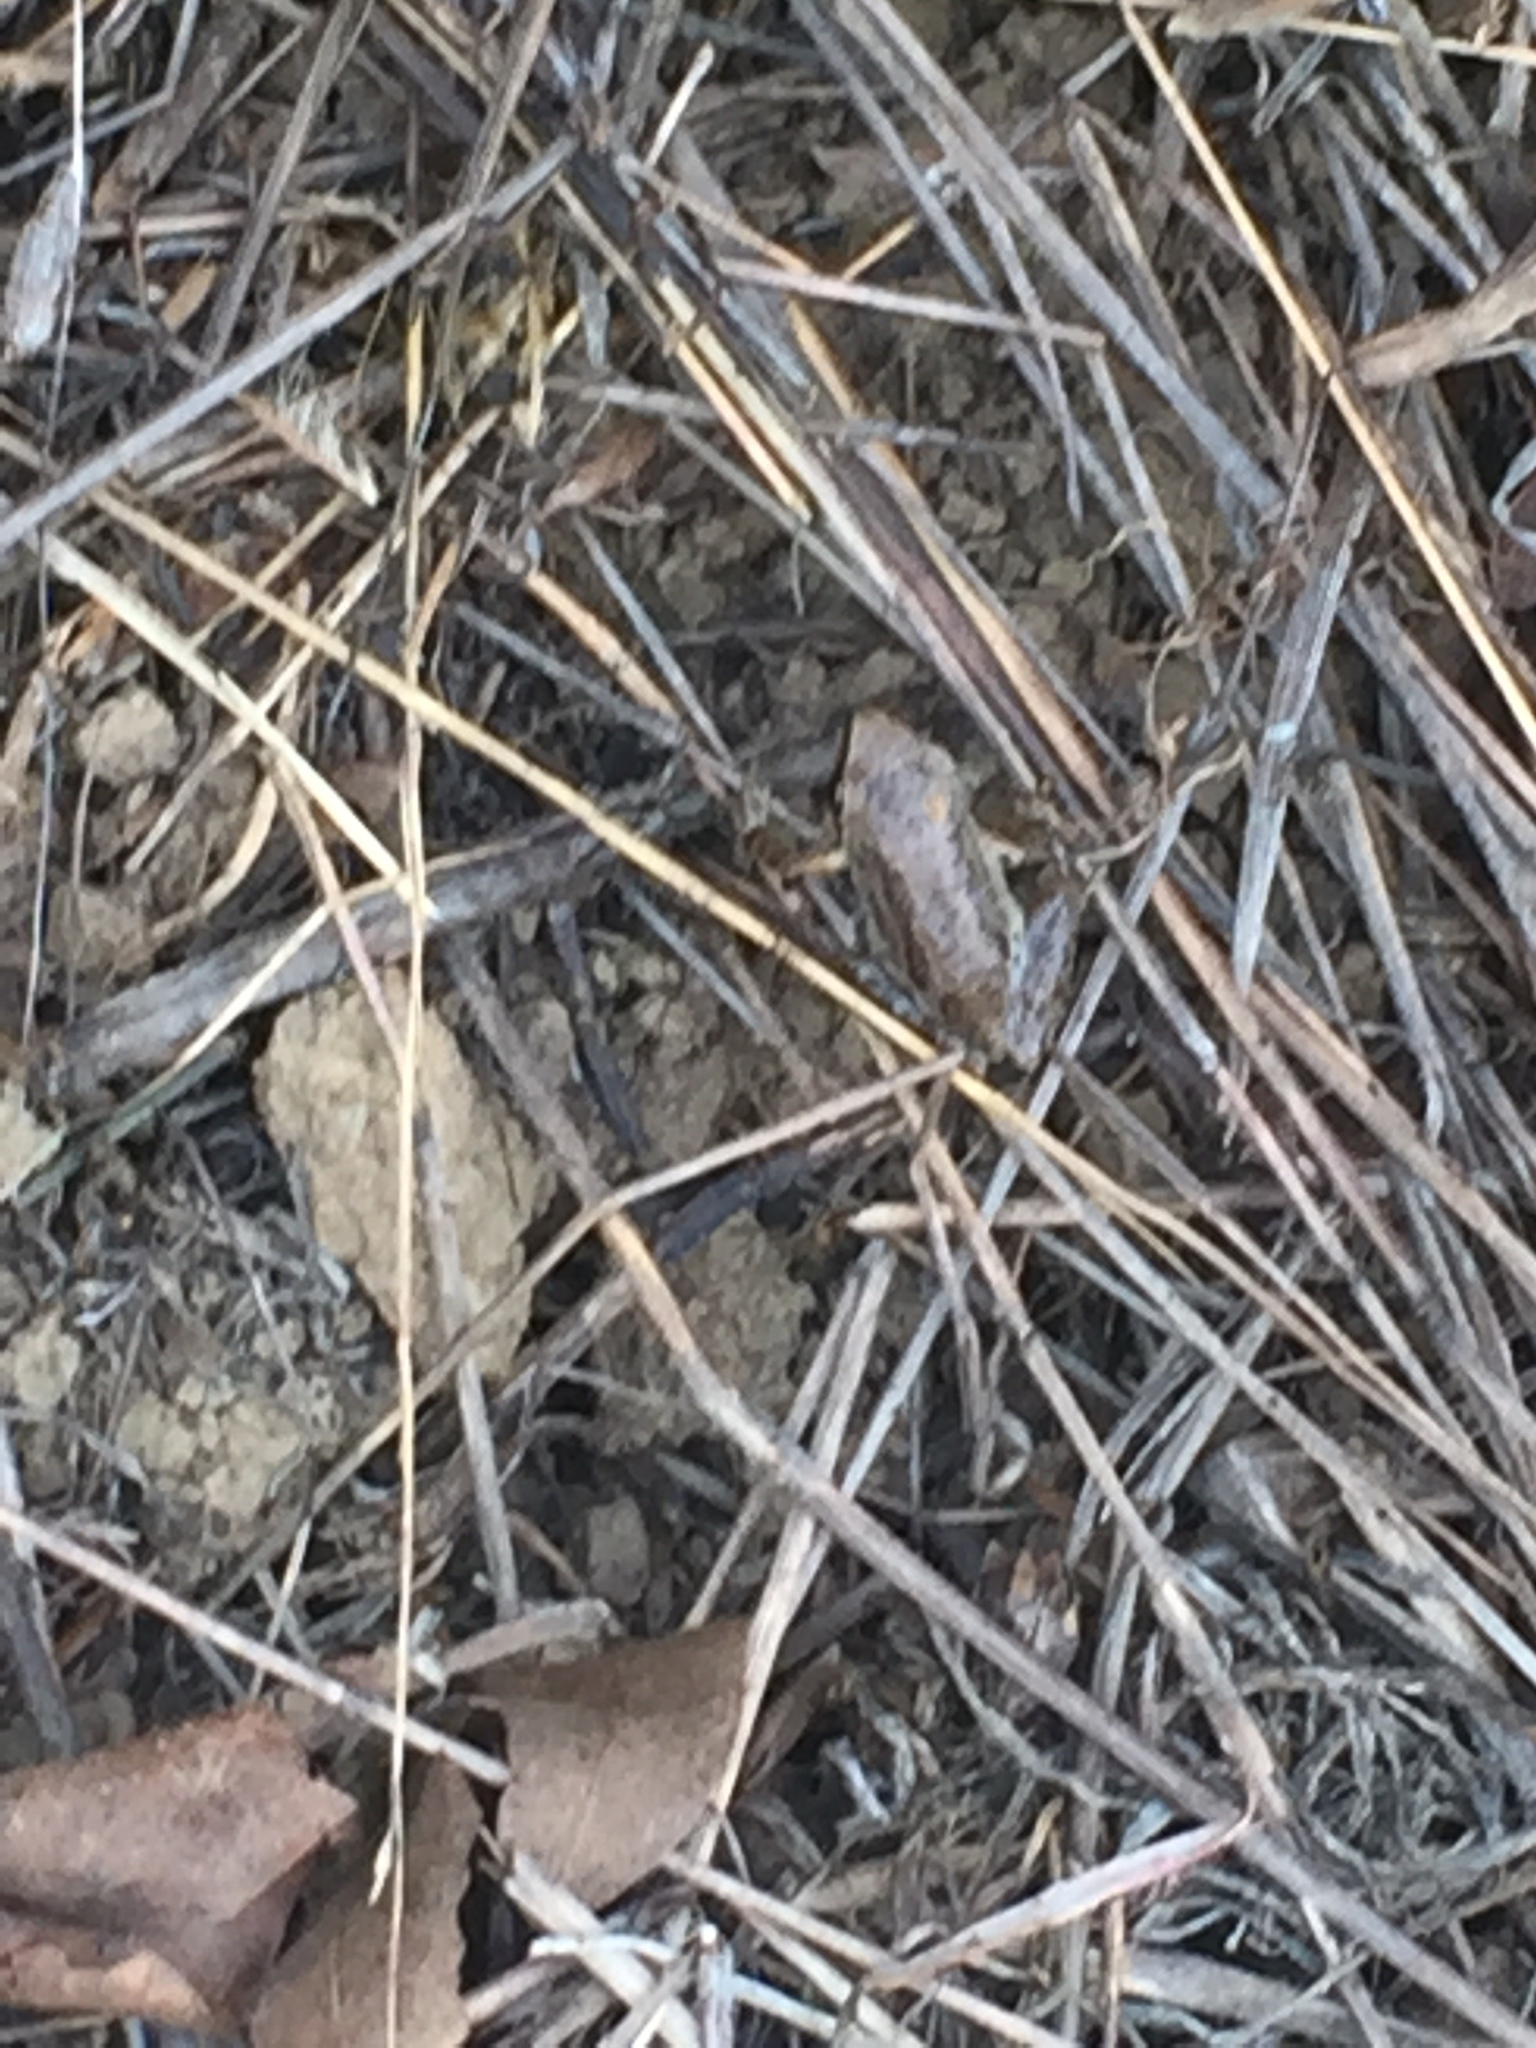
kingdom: Animalia
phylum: Chordata
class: Amphibia
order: Anura
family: Hylidae
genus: Pseudacris
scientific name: Pseudacris regilla
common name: Pacific chorus frog
